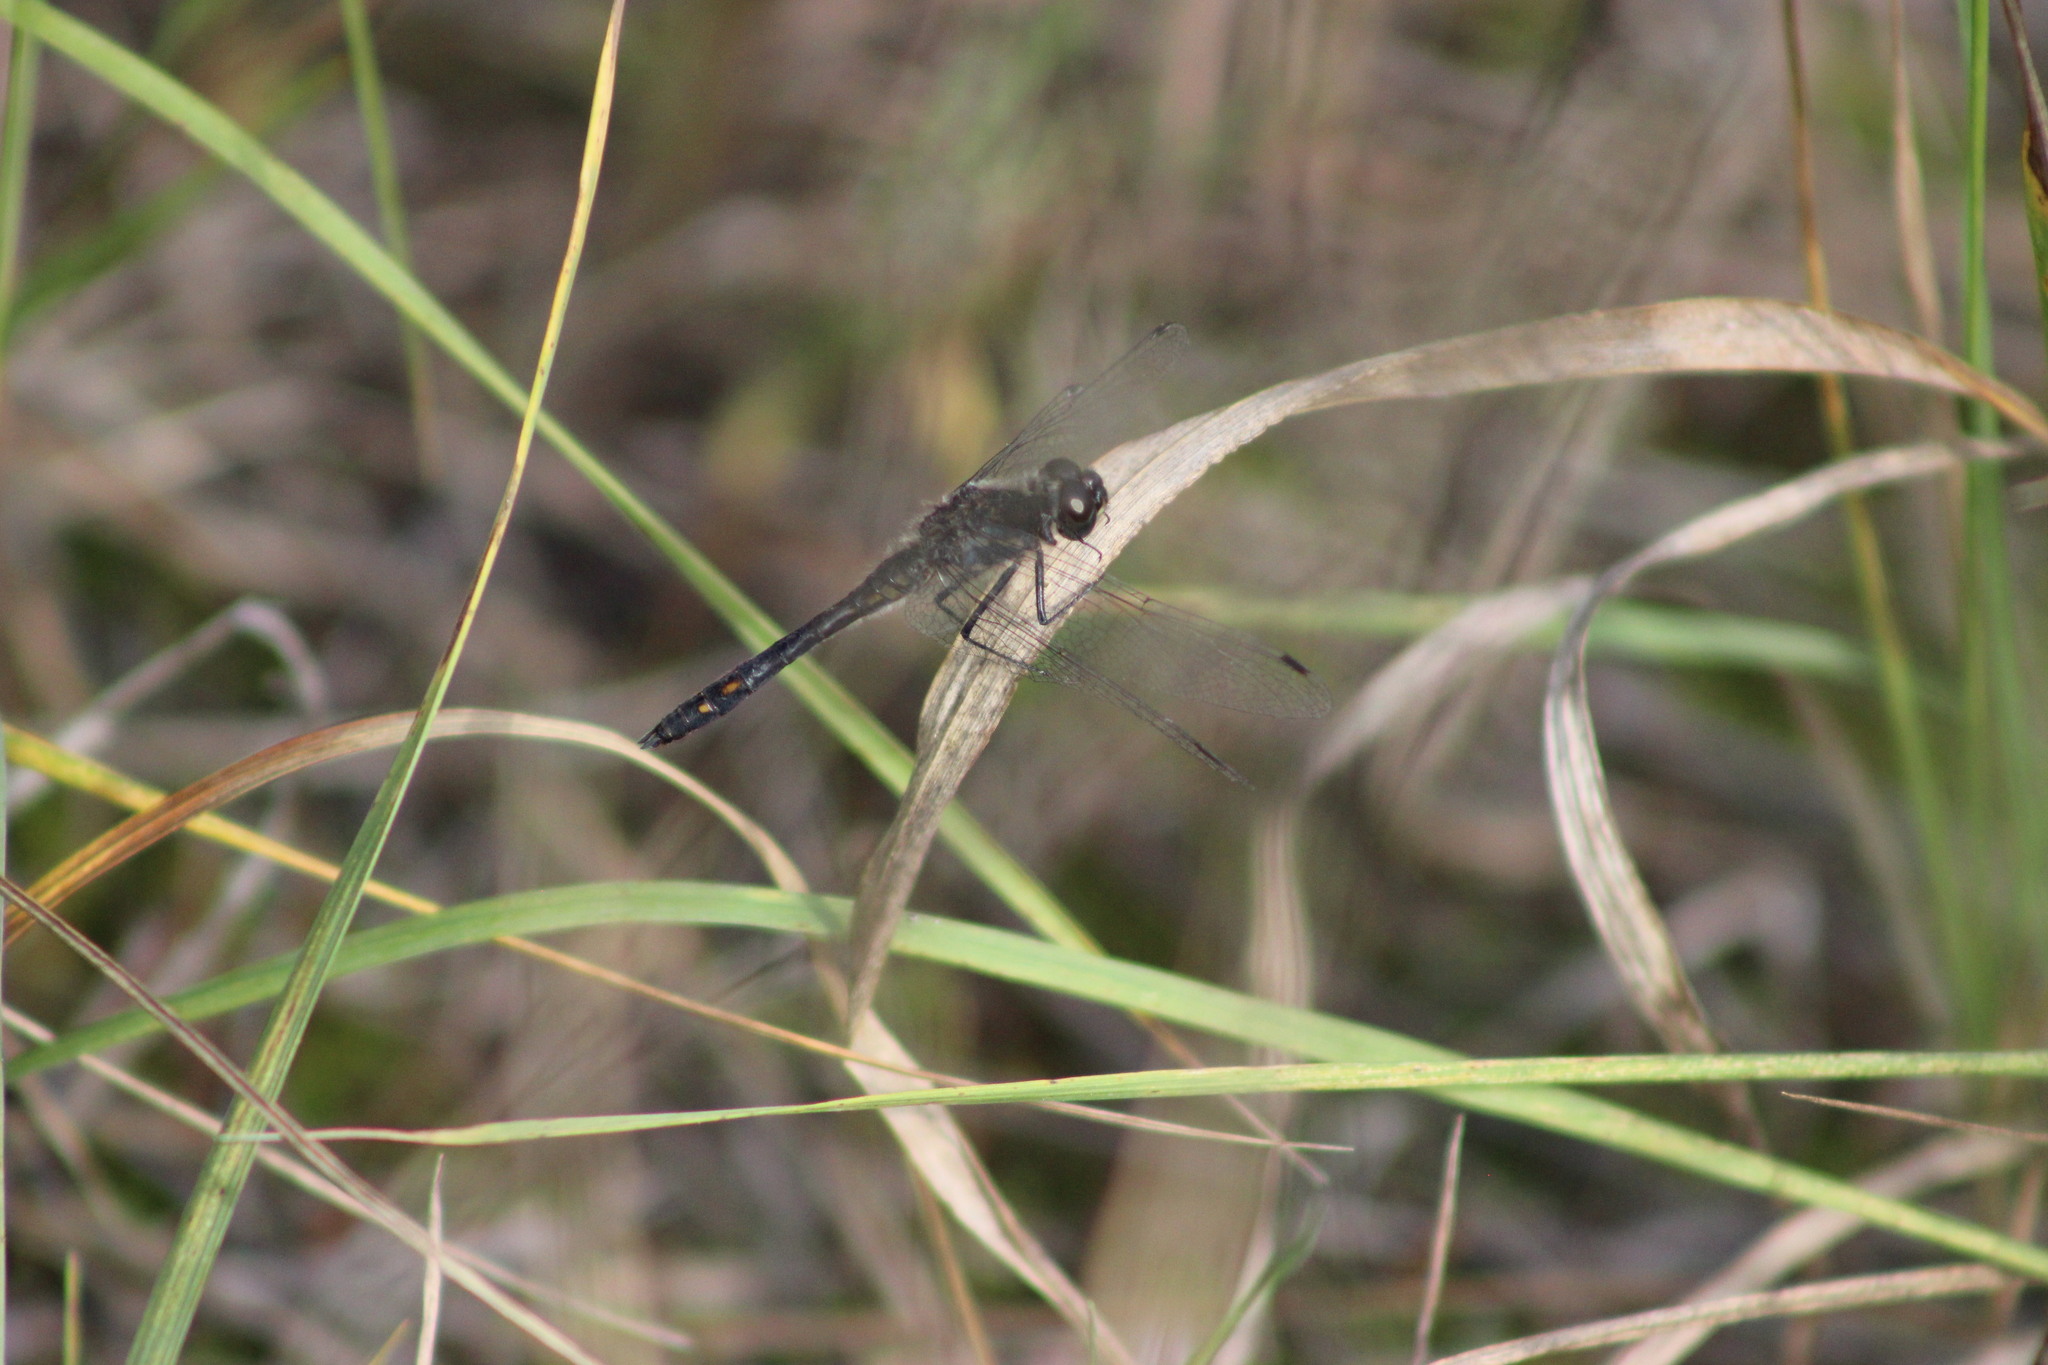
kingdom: Animalia
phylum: Arthropoda
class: Insecta
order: Odonata
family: Libellulidae
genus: Sympetrum
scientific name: Sympetrum danae
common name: Black darter
